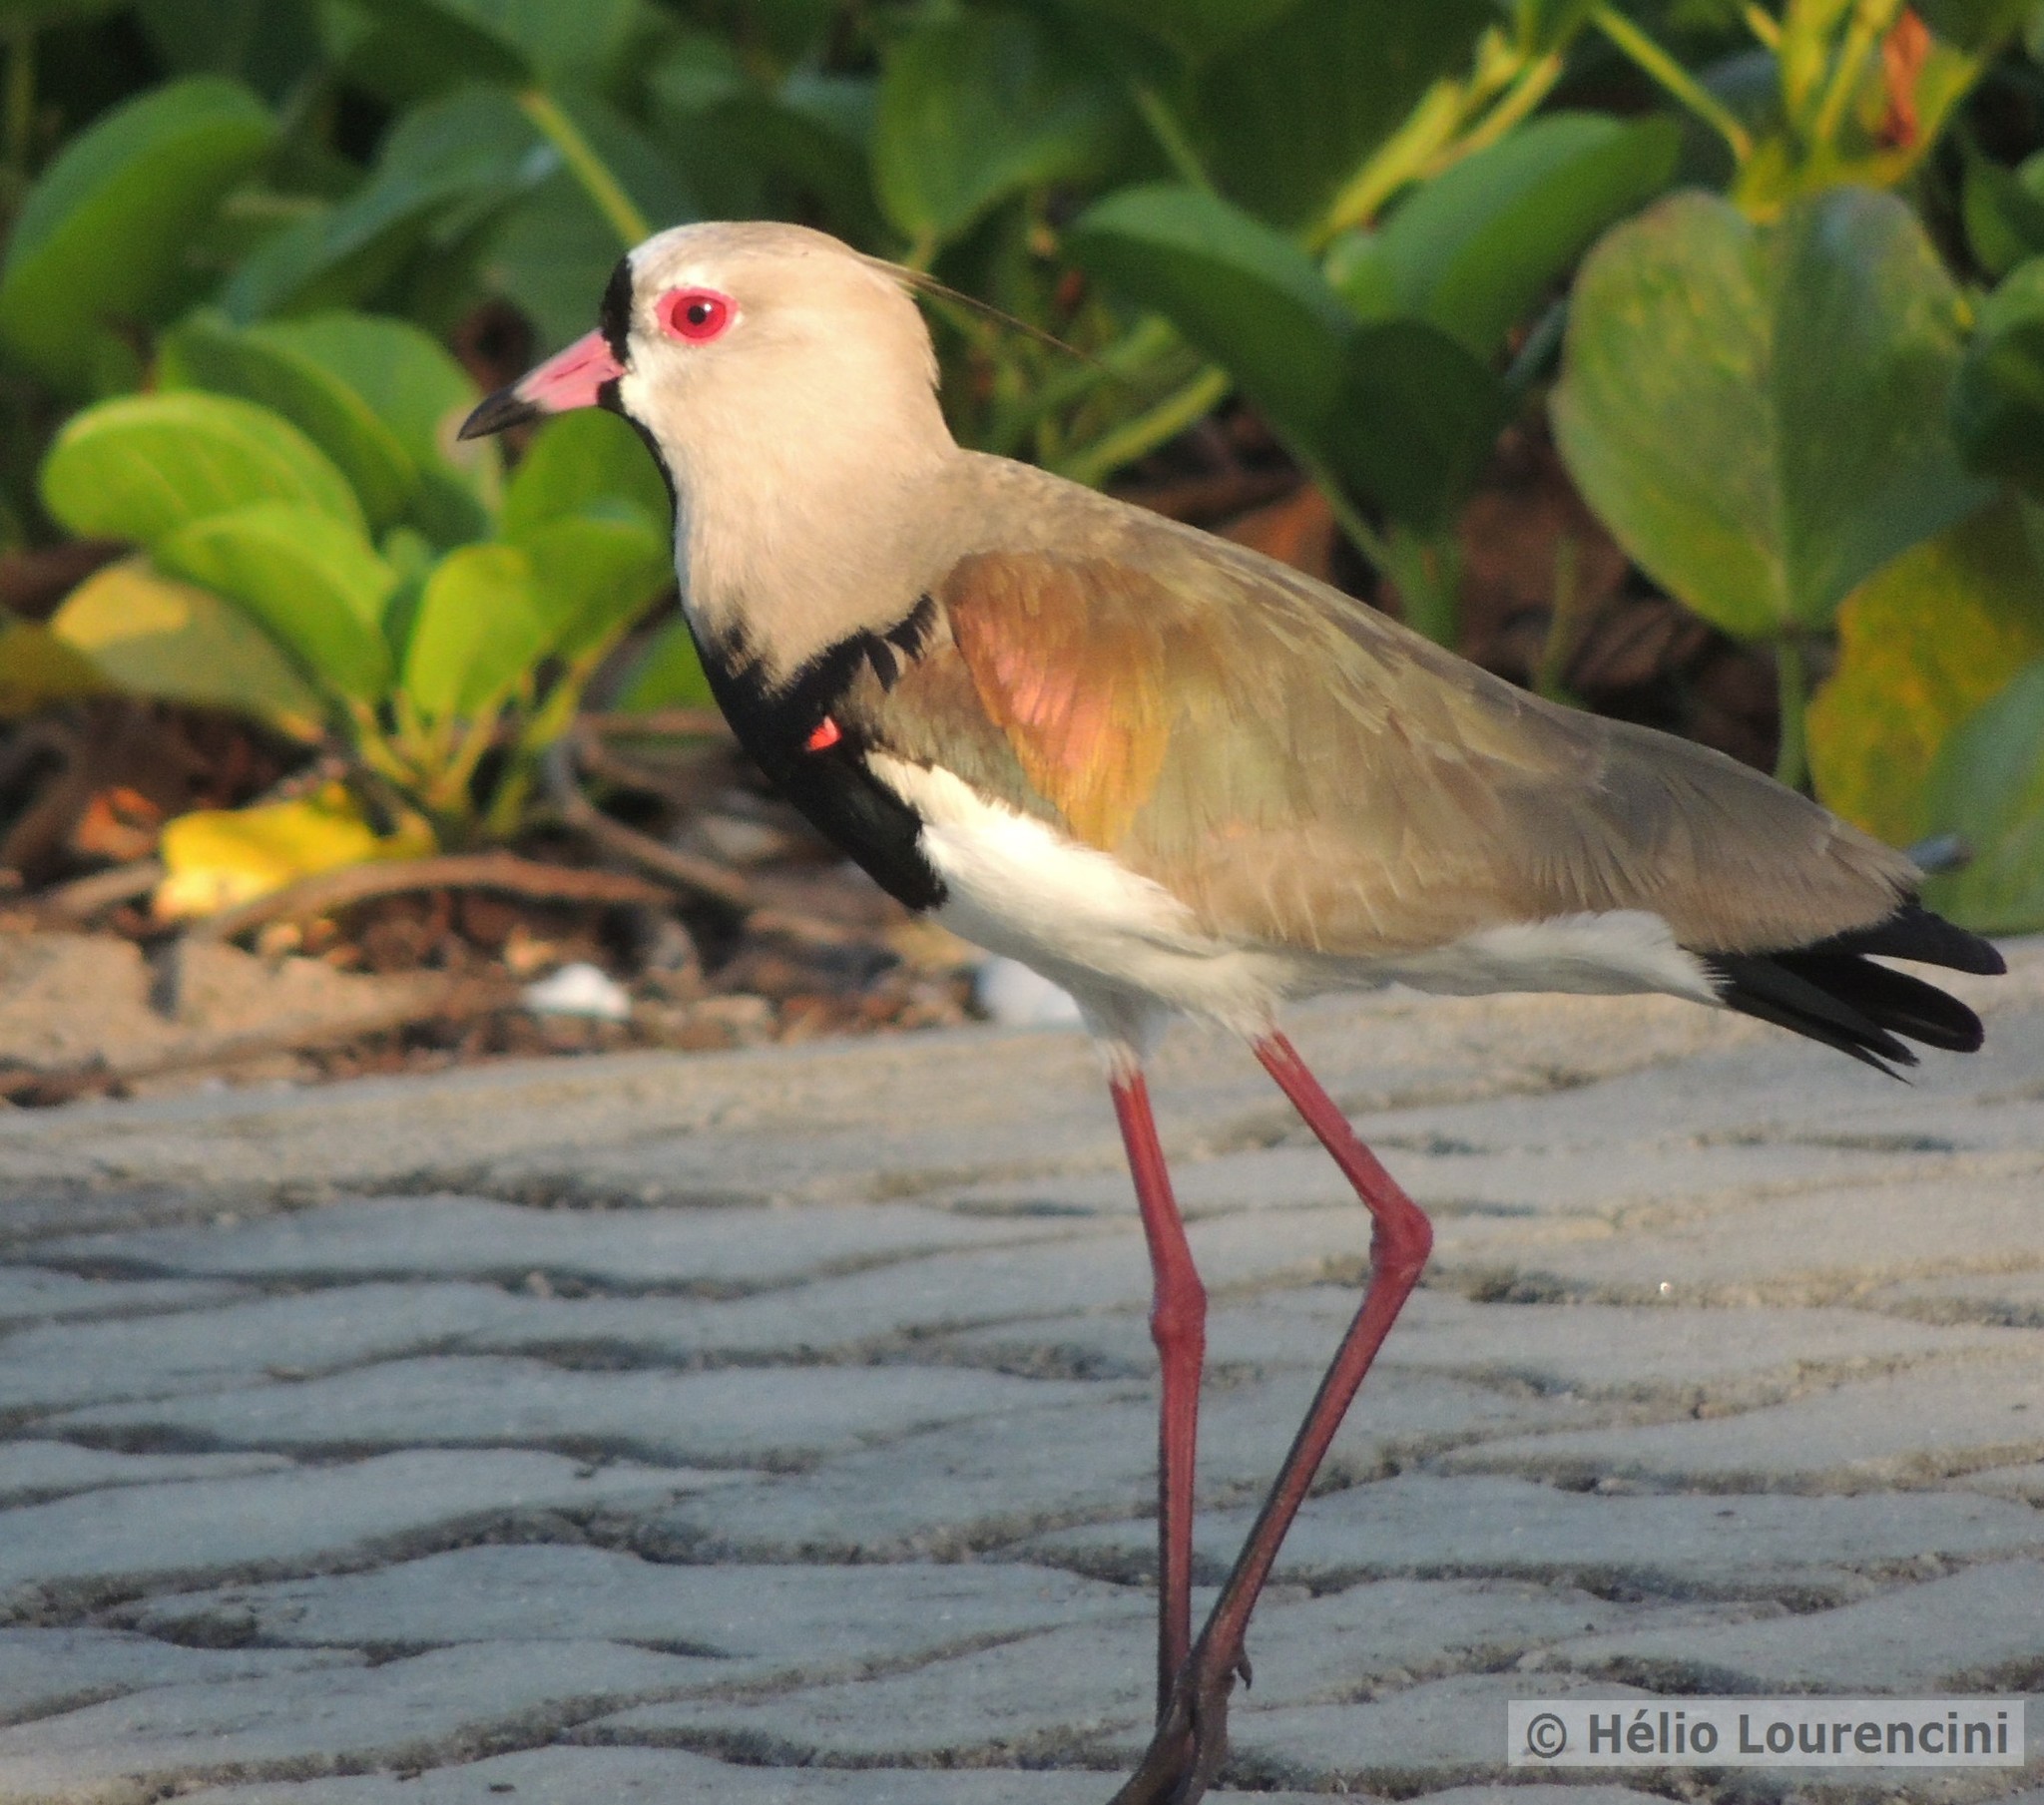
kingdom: Animalia
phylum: Chordata
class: Aves
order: Charadriiformes
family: Charadriidae
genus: Vanellus
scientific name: Vanellus chilensis
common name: Southern lapwing
